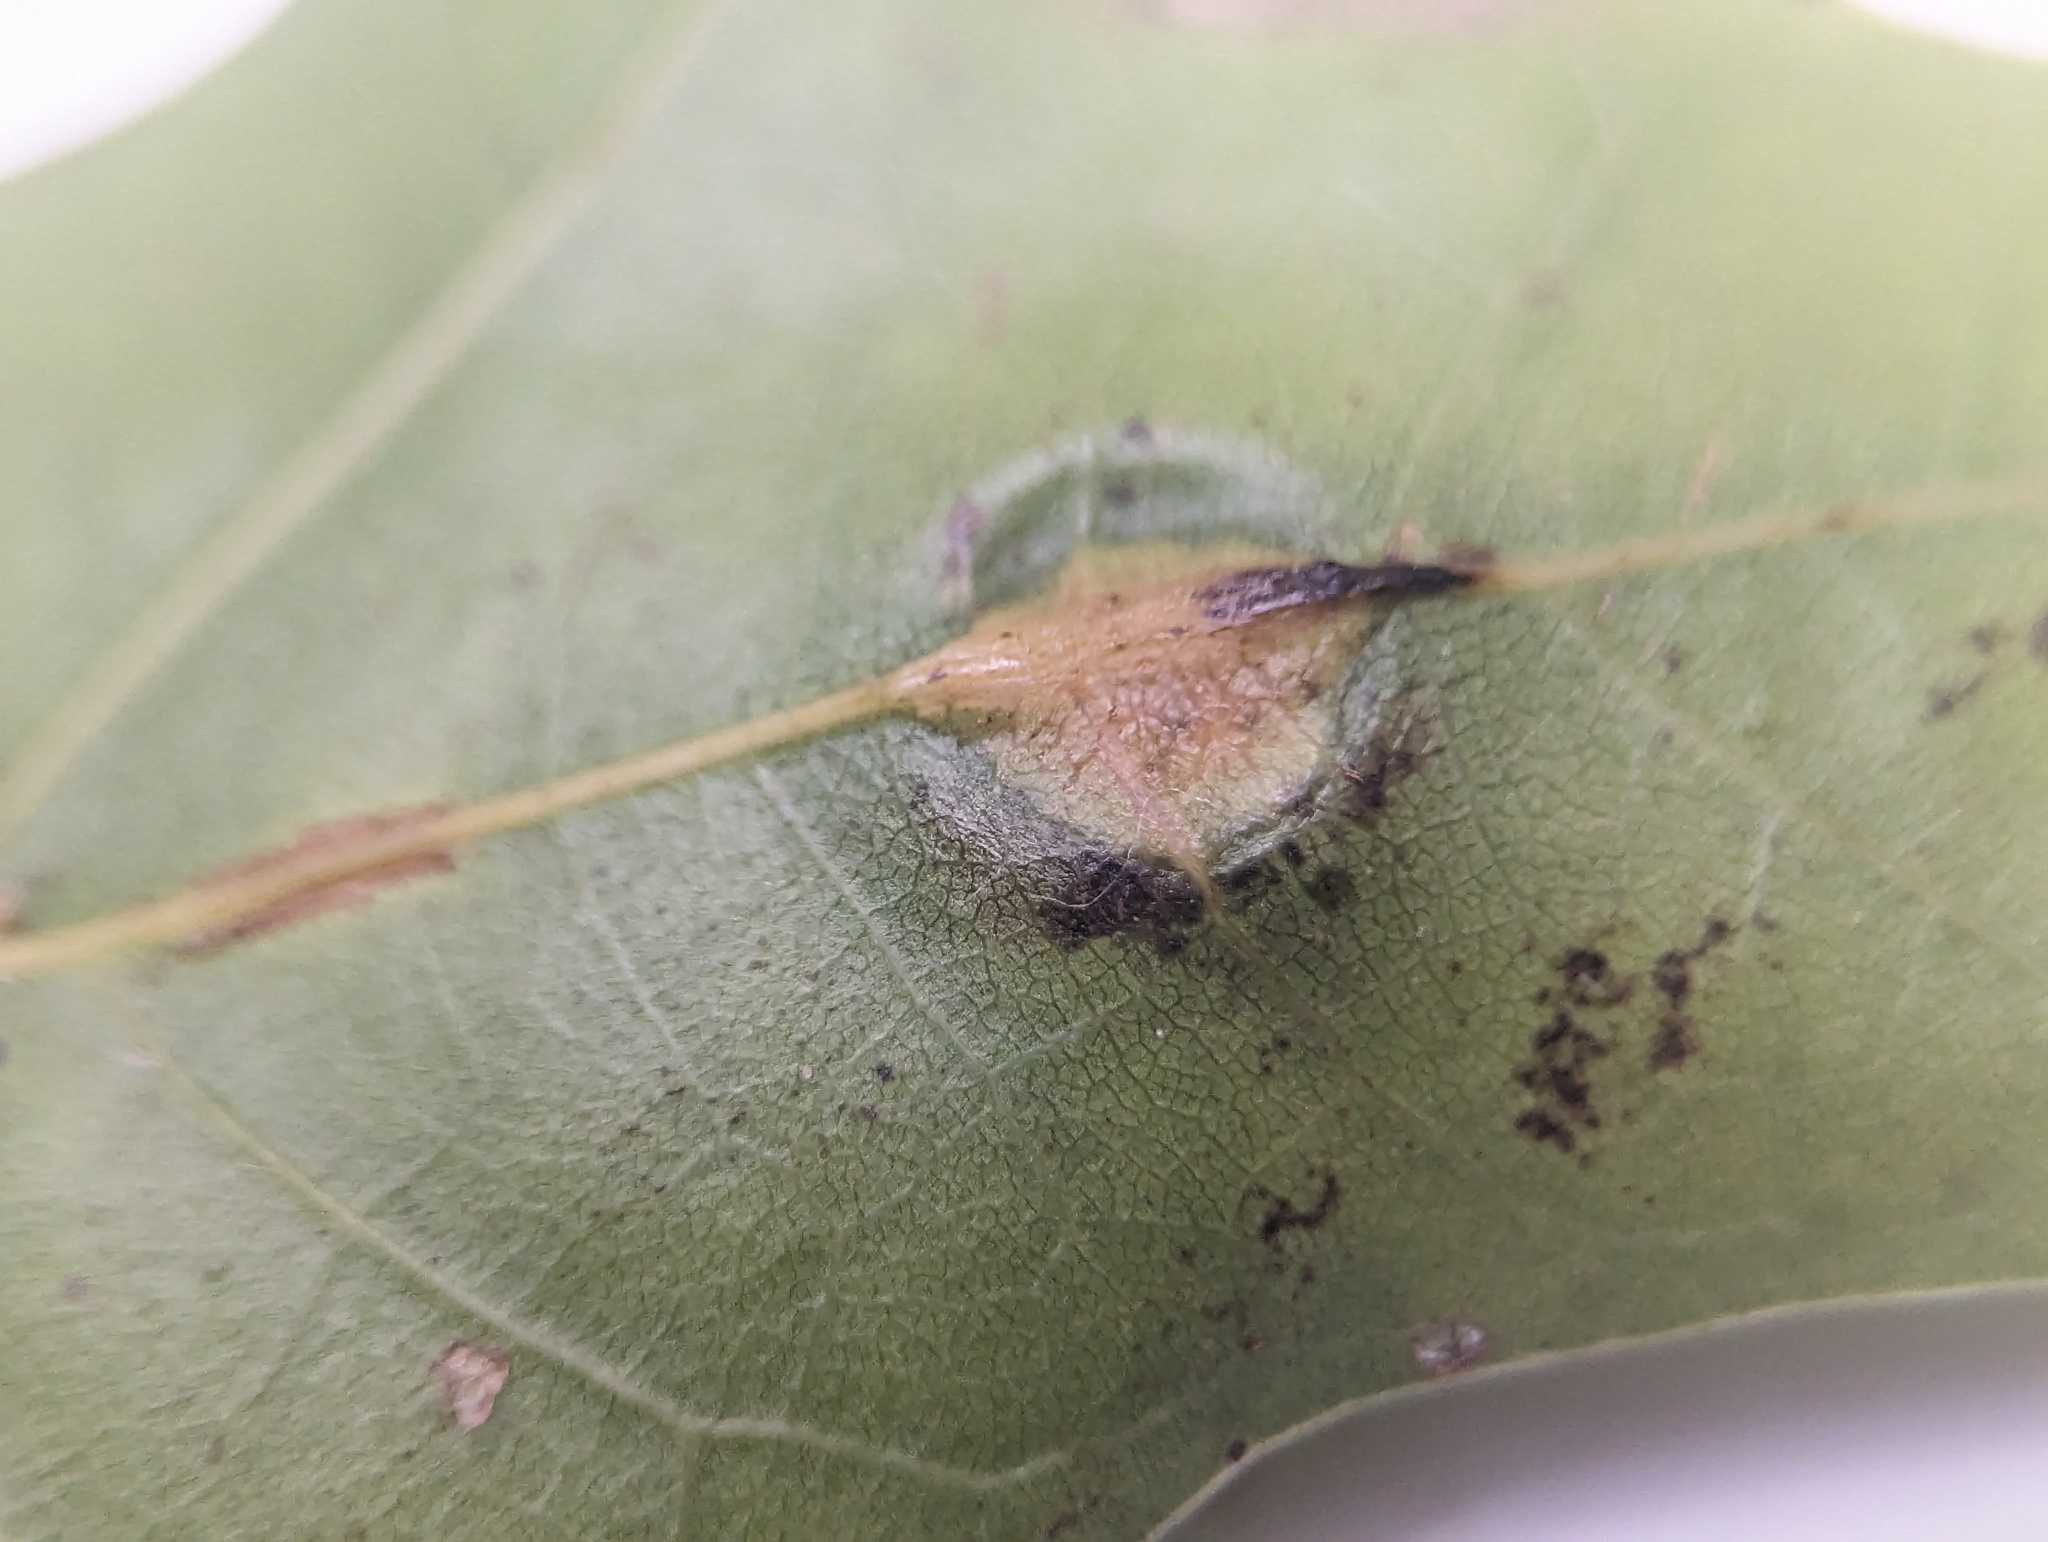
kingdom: Animalia
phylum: Arthropoda
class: Insecta
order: Diptera
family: Cecidomyiidae
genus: Polystepha
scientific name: Polystepha pilulae
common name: Oak leaf gall midge
